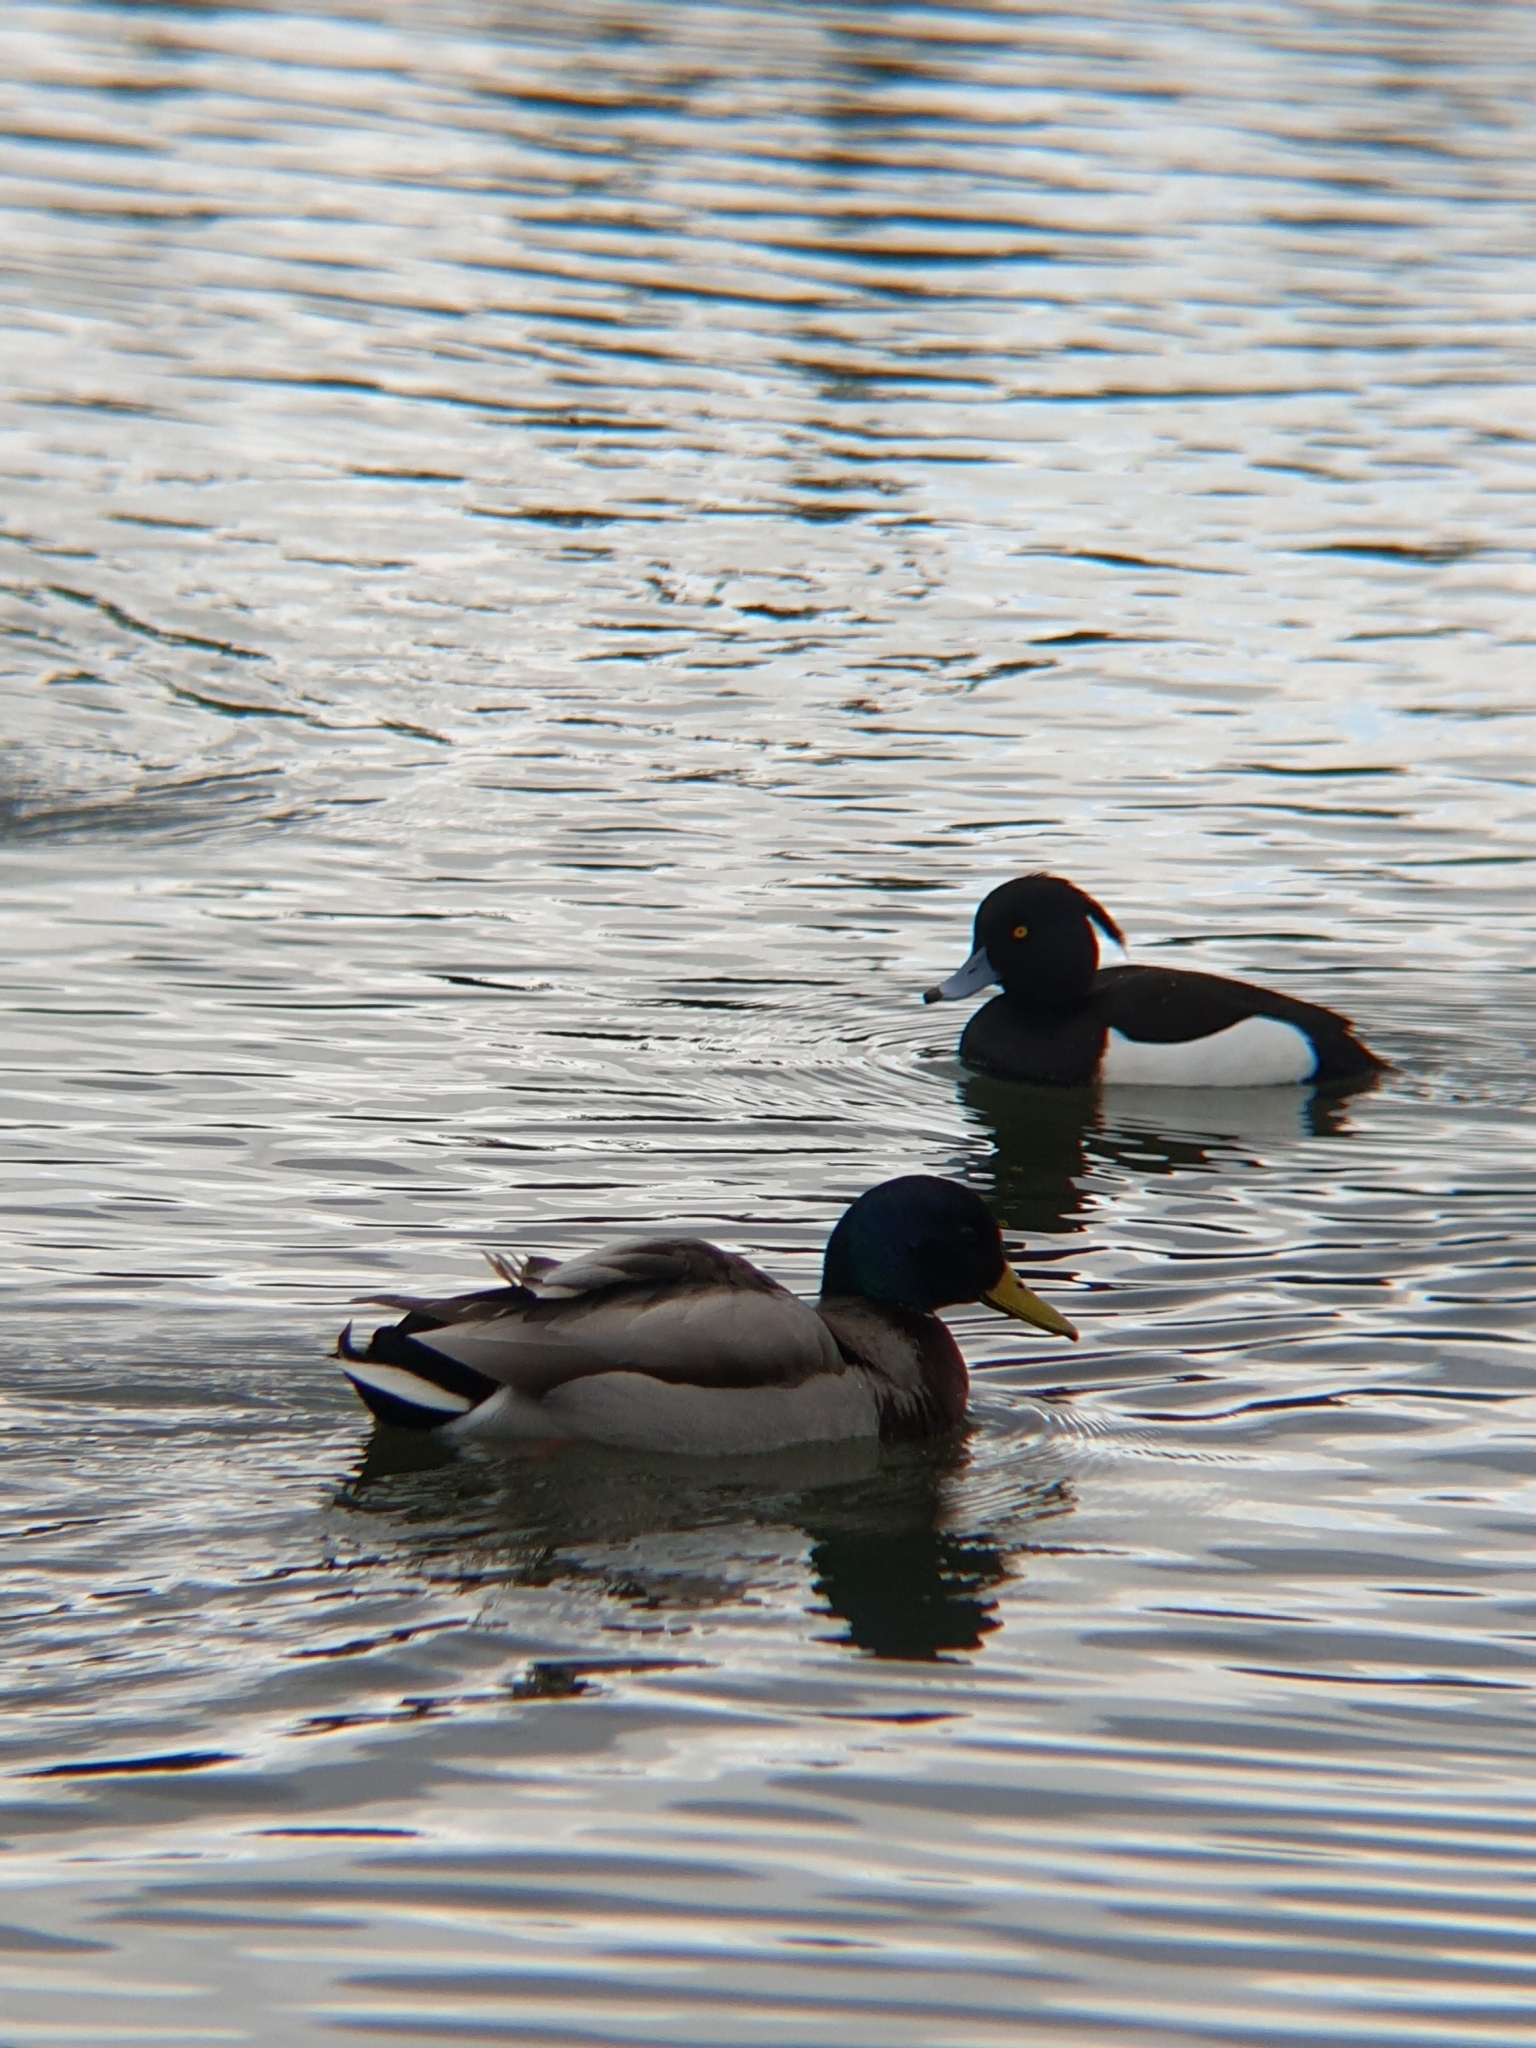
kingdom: Animalia
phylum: Chordata
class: Aves
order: Anseriformes
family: Anatidae
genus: Aythya
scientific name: Aythya fuligula
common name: Tufted duck
